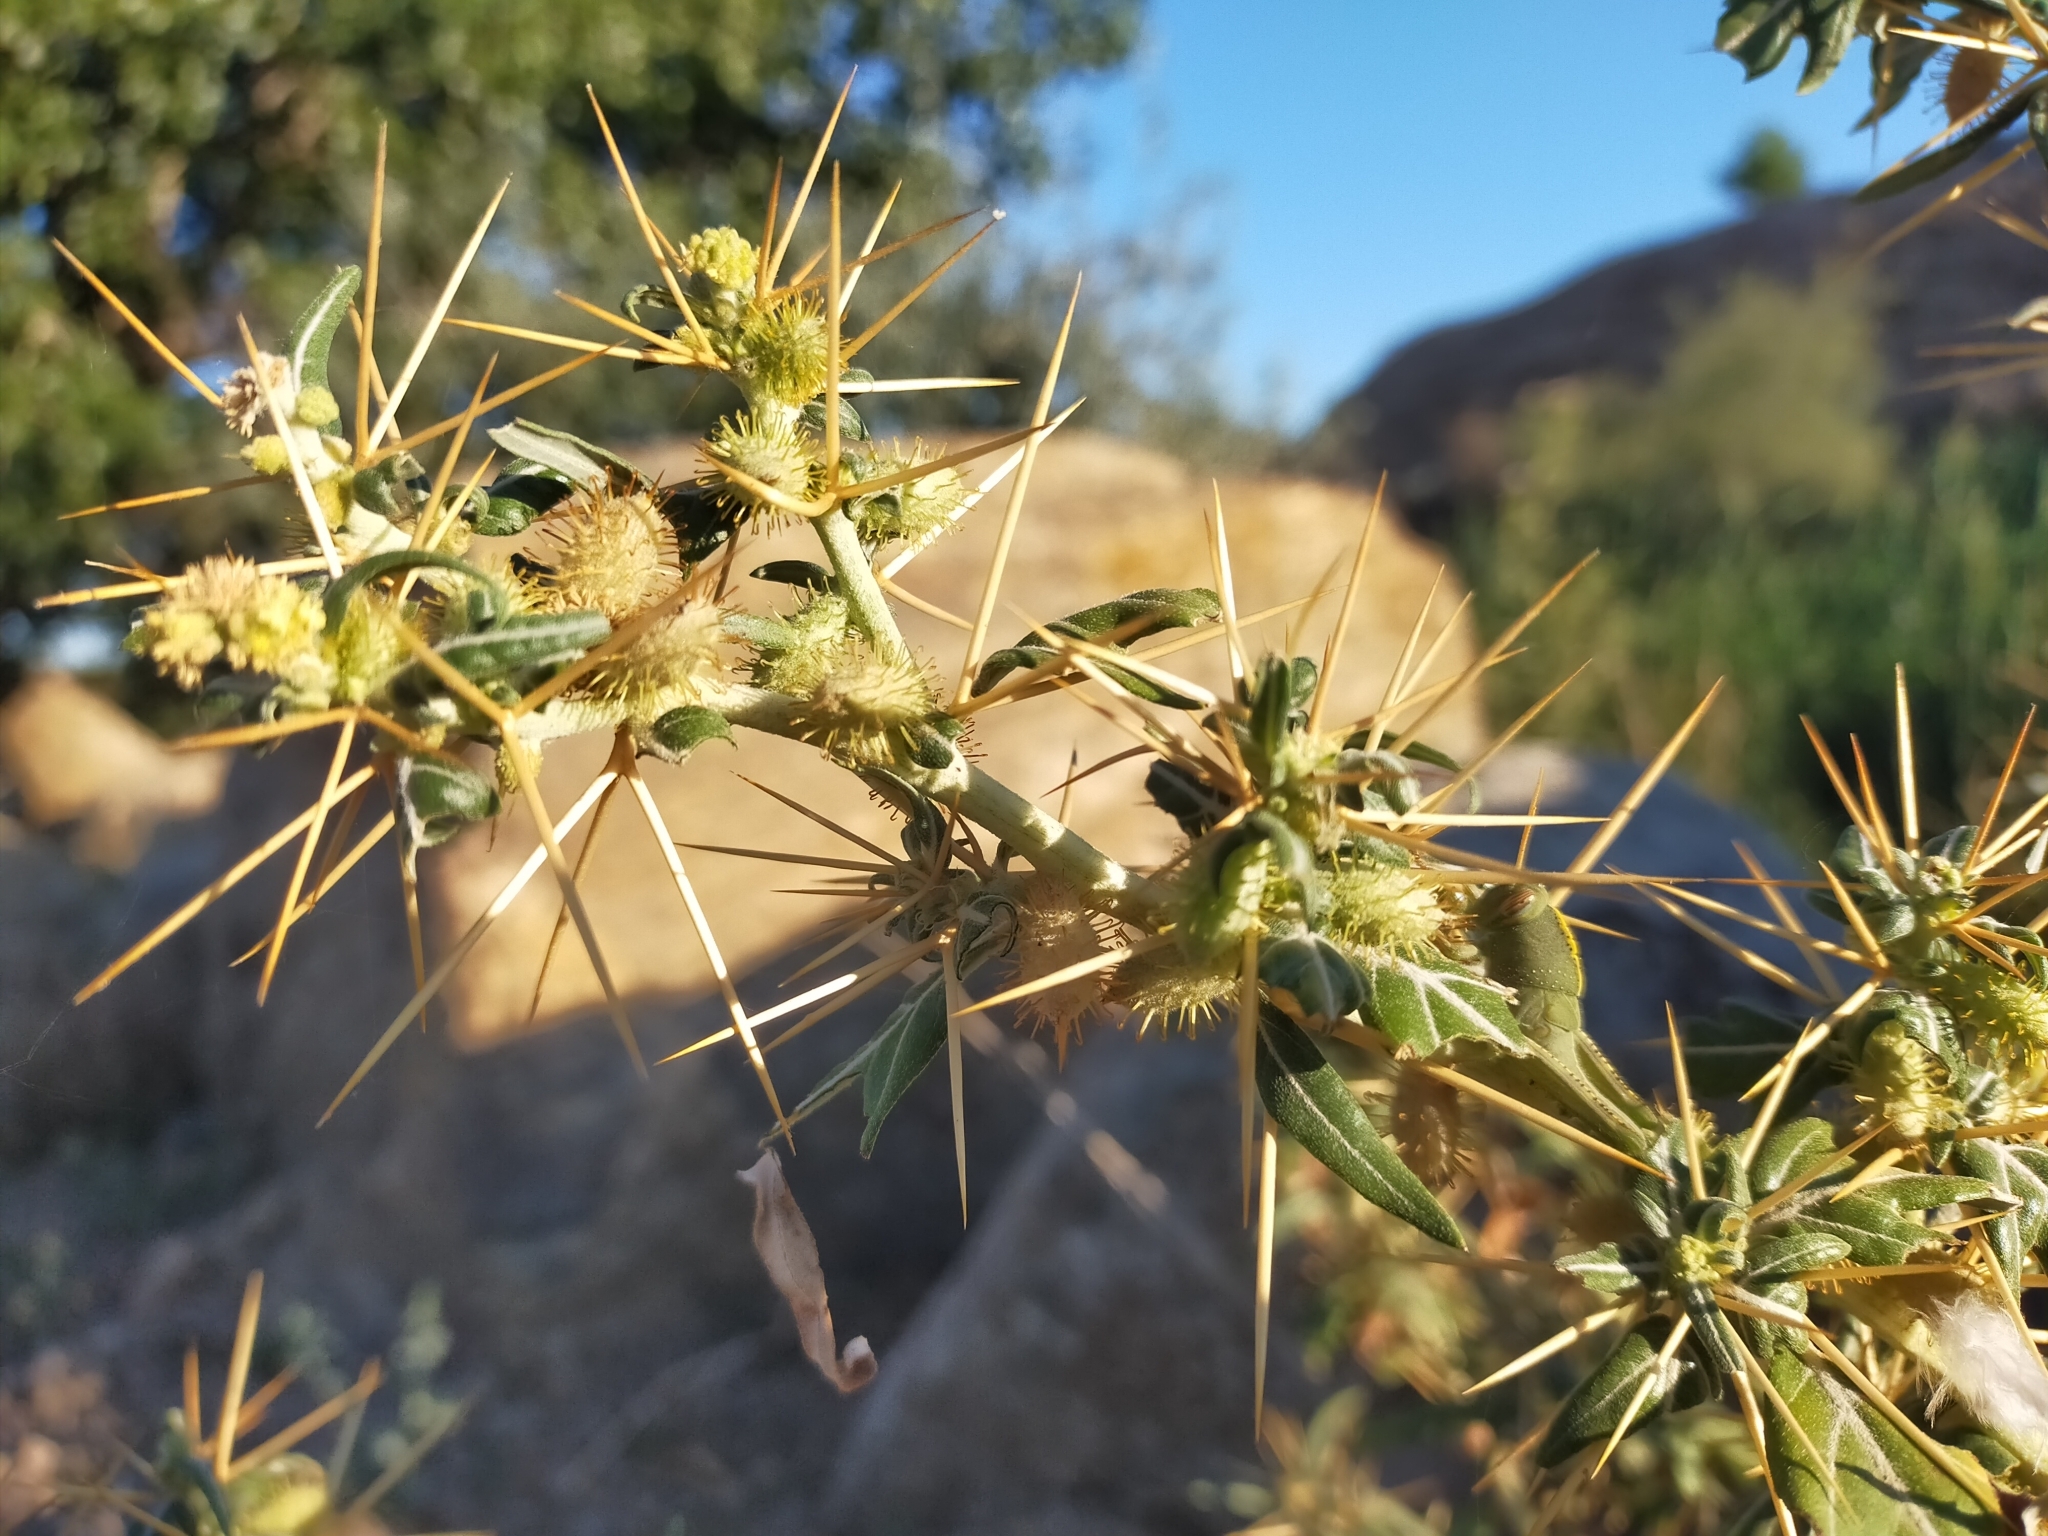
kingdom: Plantae
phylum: Tracheophyta
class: Magnoliopsida
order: Asterales
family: Asteraceae
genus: Xanthium
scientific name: Xanthium spinosum
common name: Spiny cocklebur
